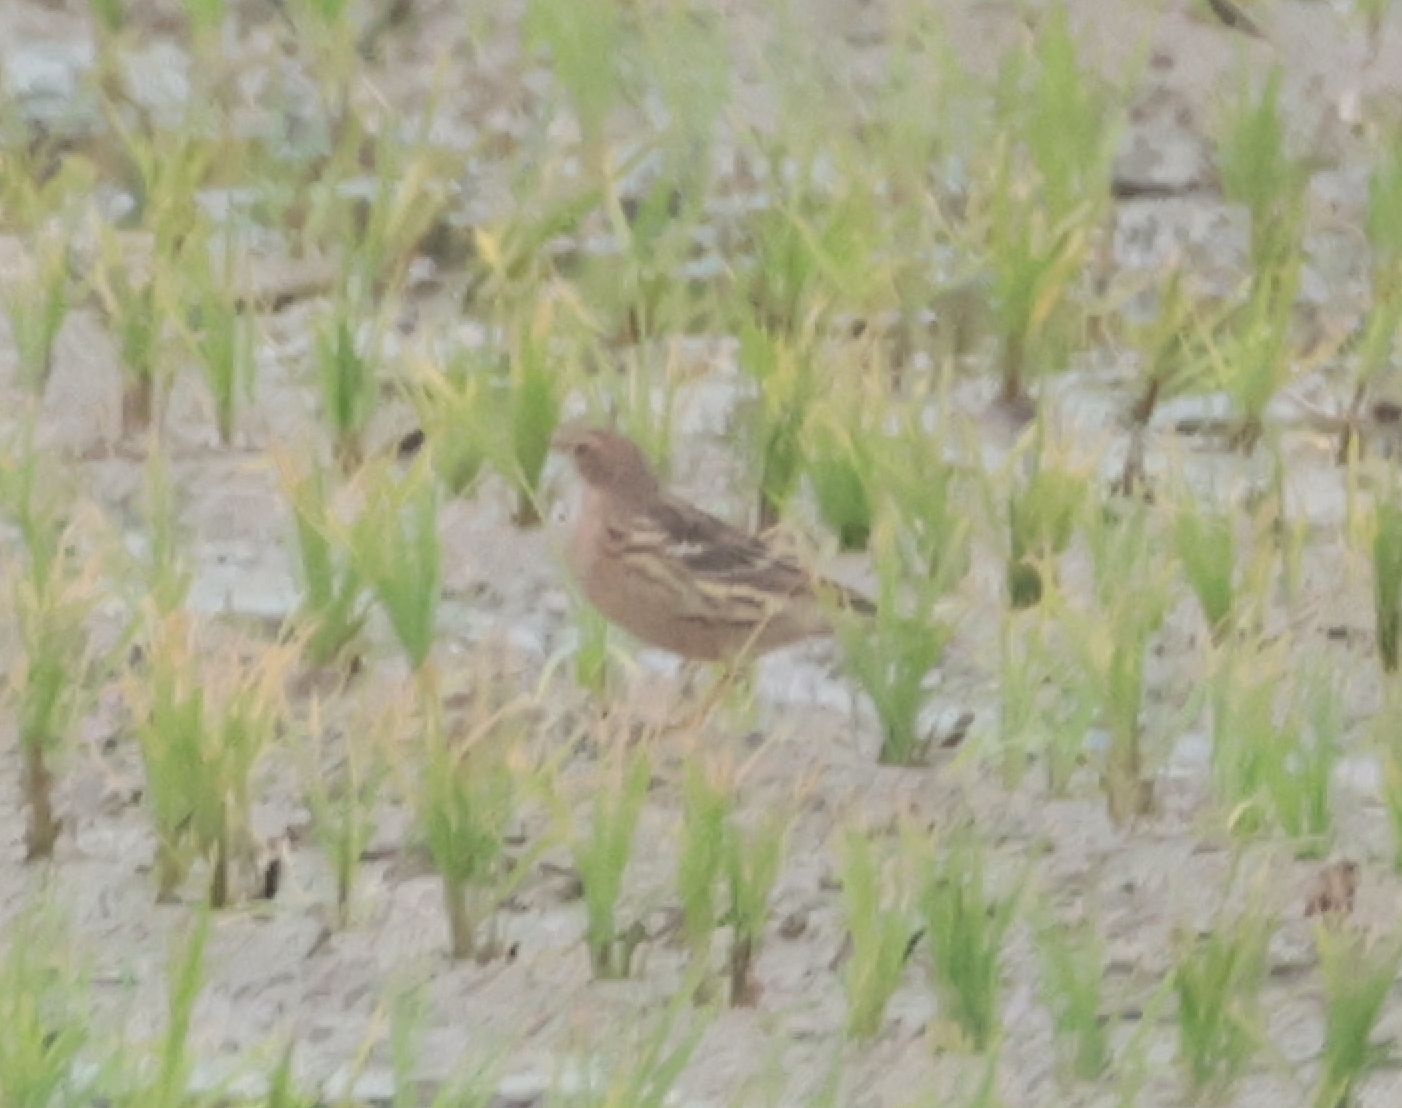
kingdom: Animalia
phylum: Chordata
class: Aves
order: Passeriformes
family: Motacillidae
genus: Anthus
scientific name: Anthus cervinus
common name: Red-throated pipit
